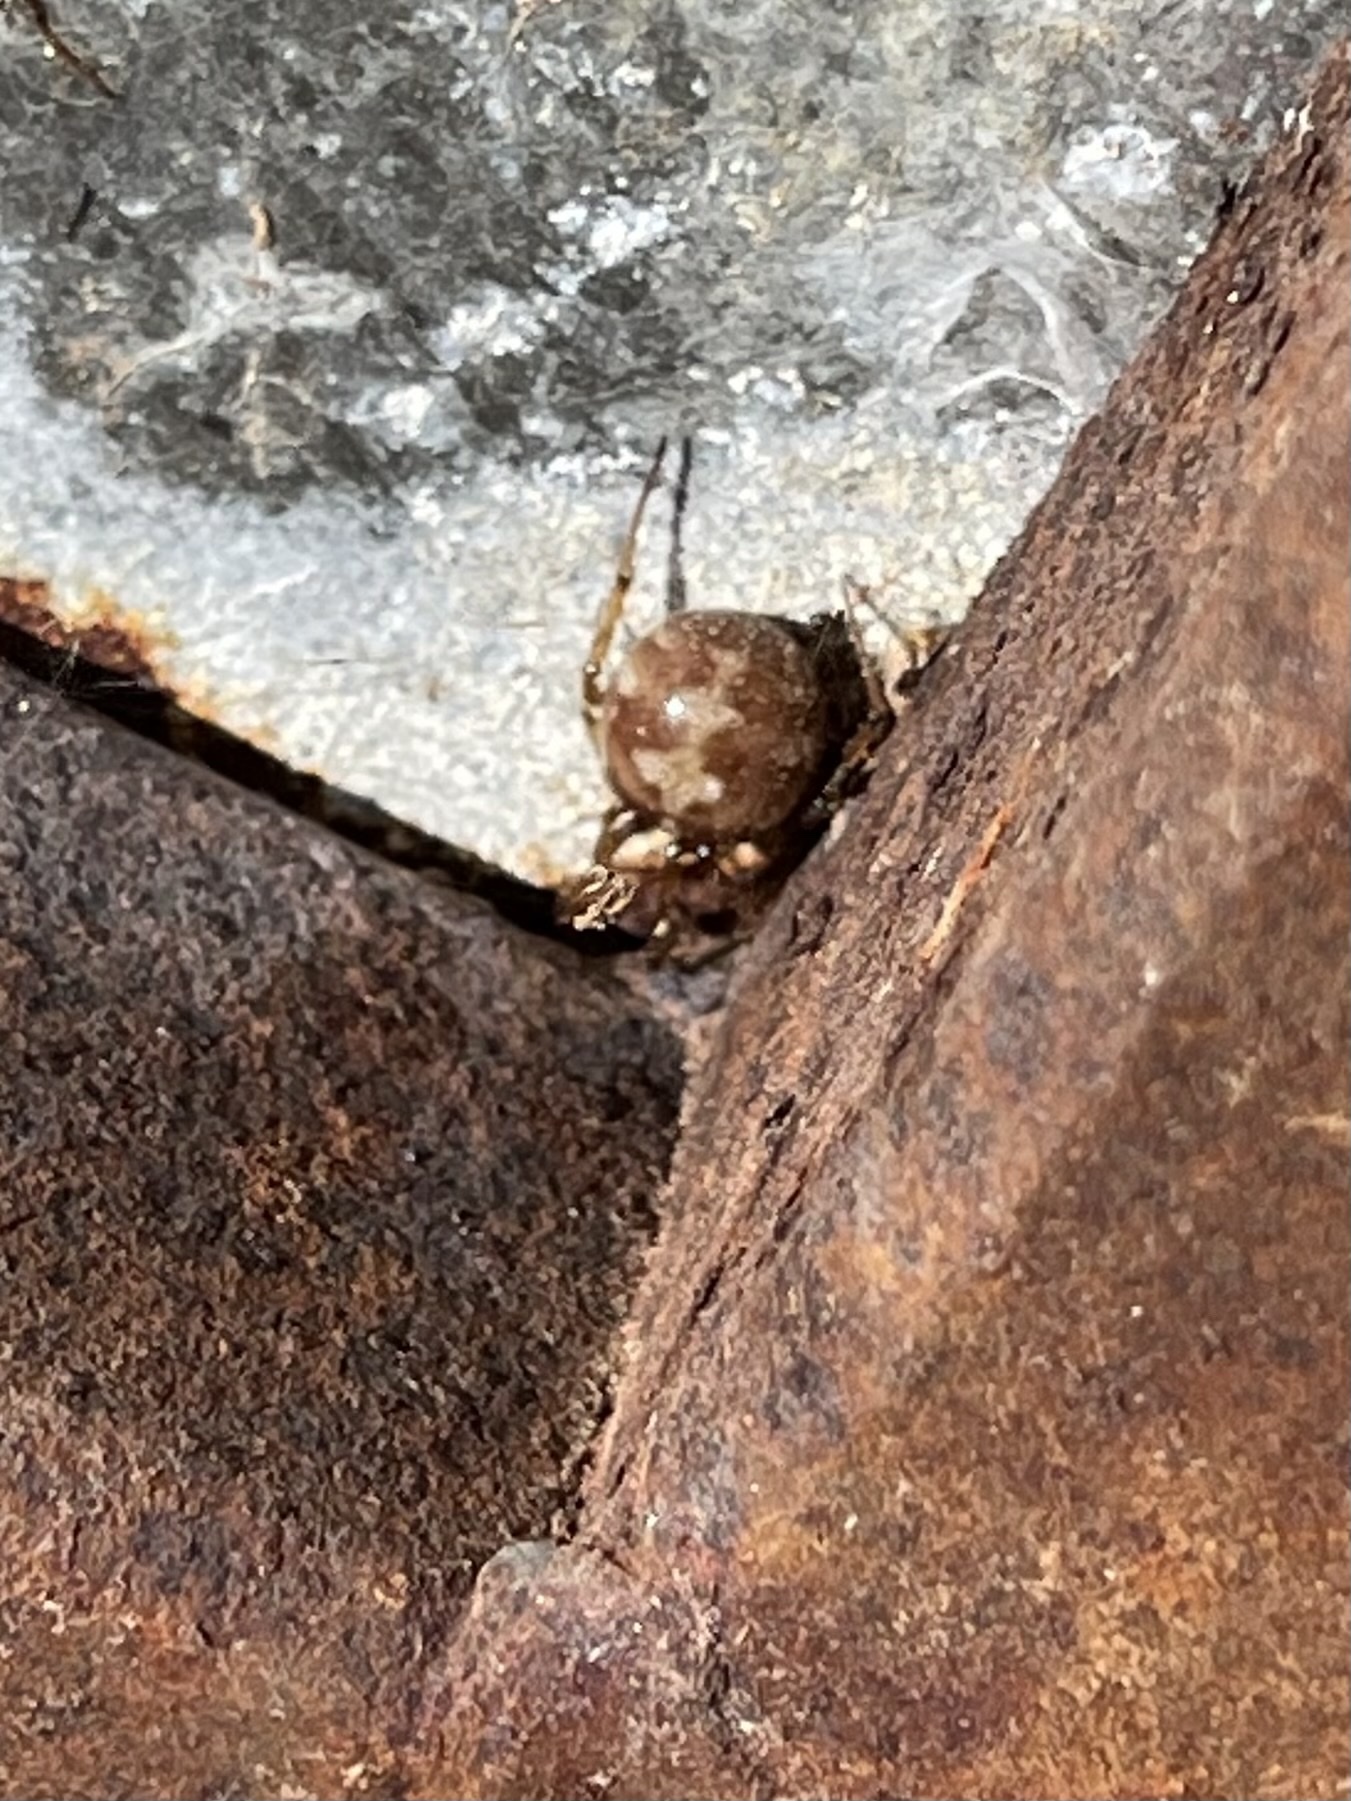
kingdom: Animalia
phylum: Arthropoda
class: Arachnida
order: Araneae
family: Theridiidae
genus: Steatoda
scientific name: Steatoda triangulosa
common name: Triangulate bud spider
